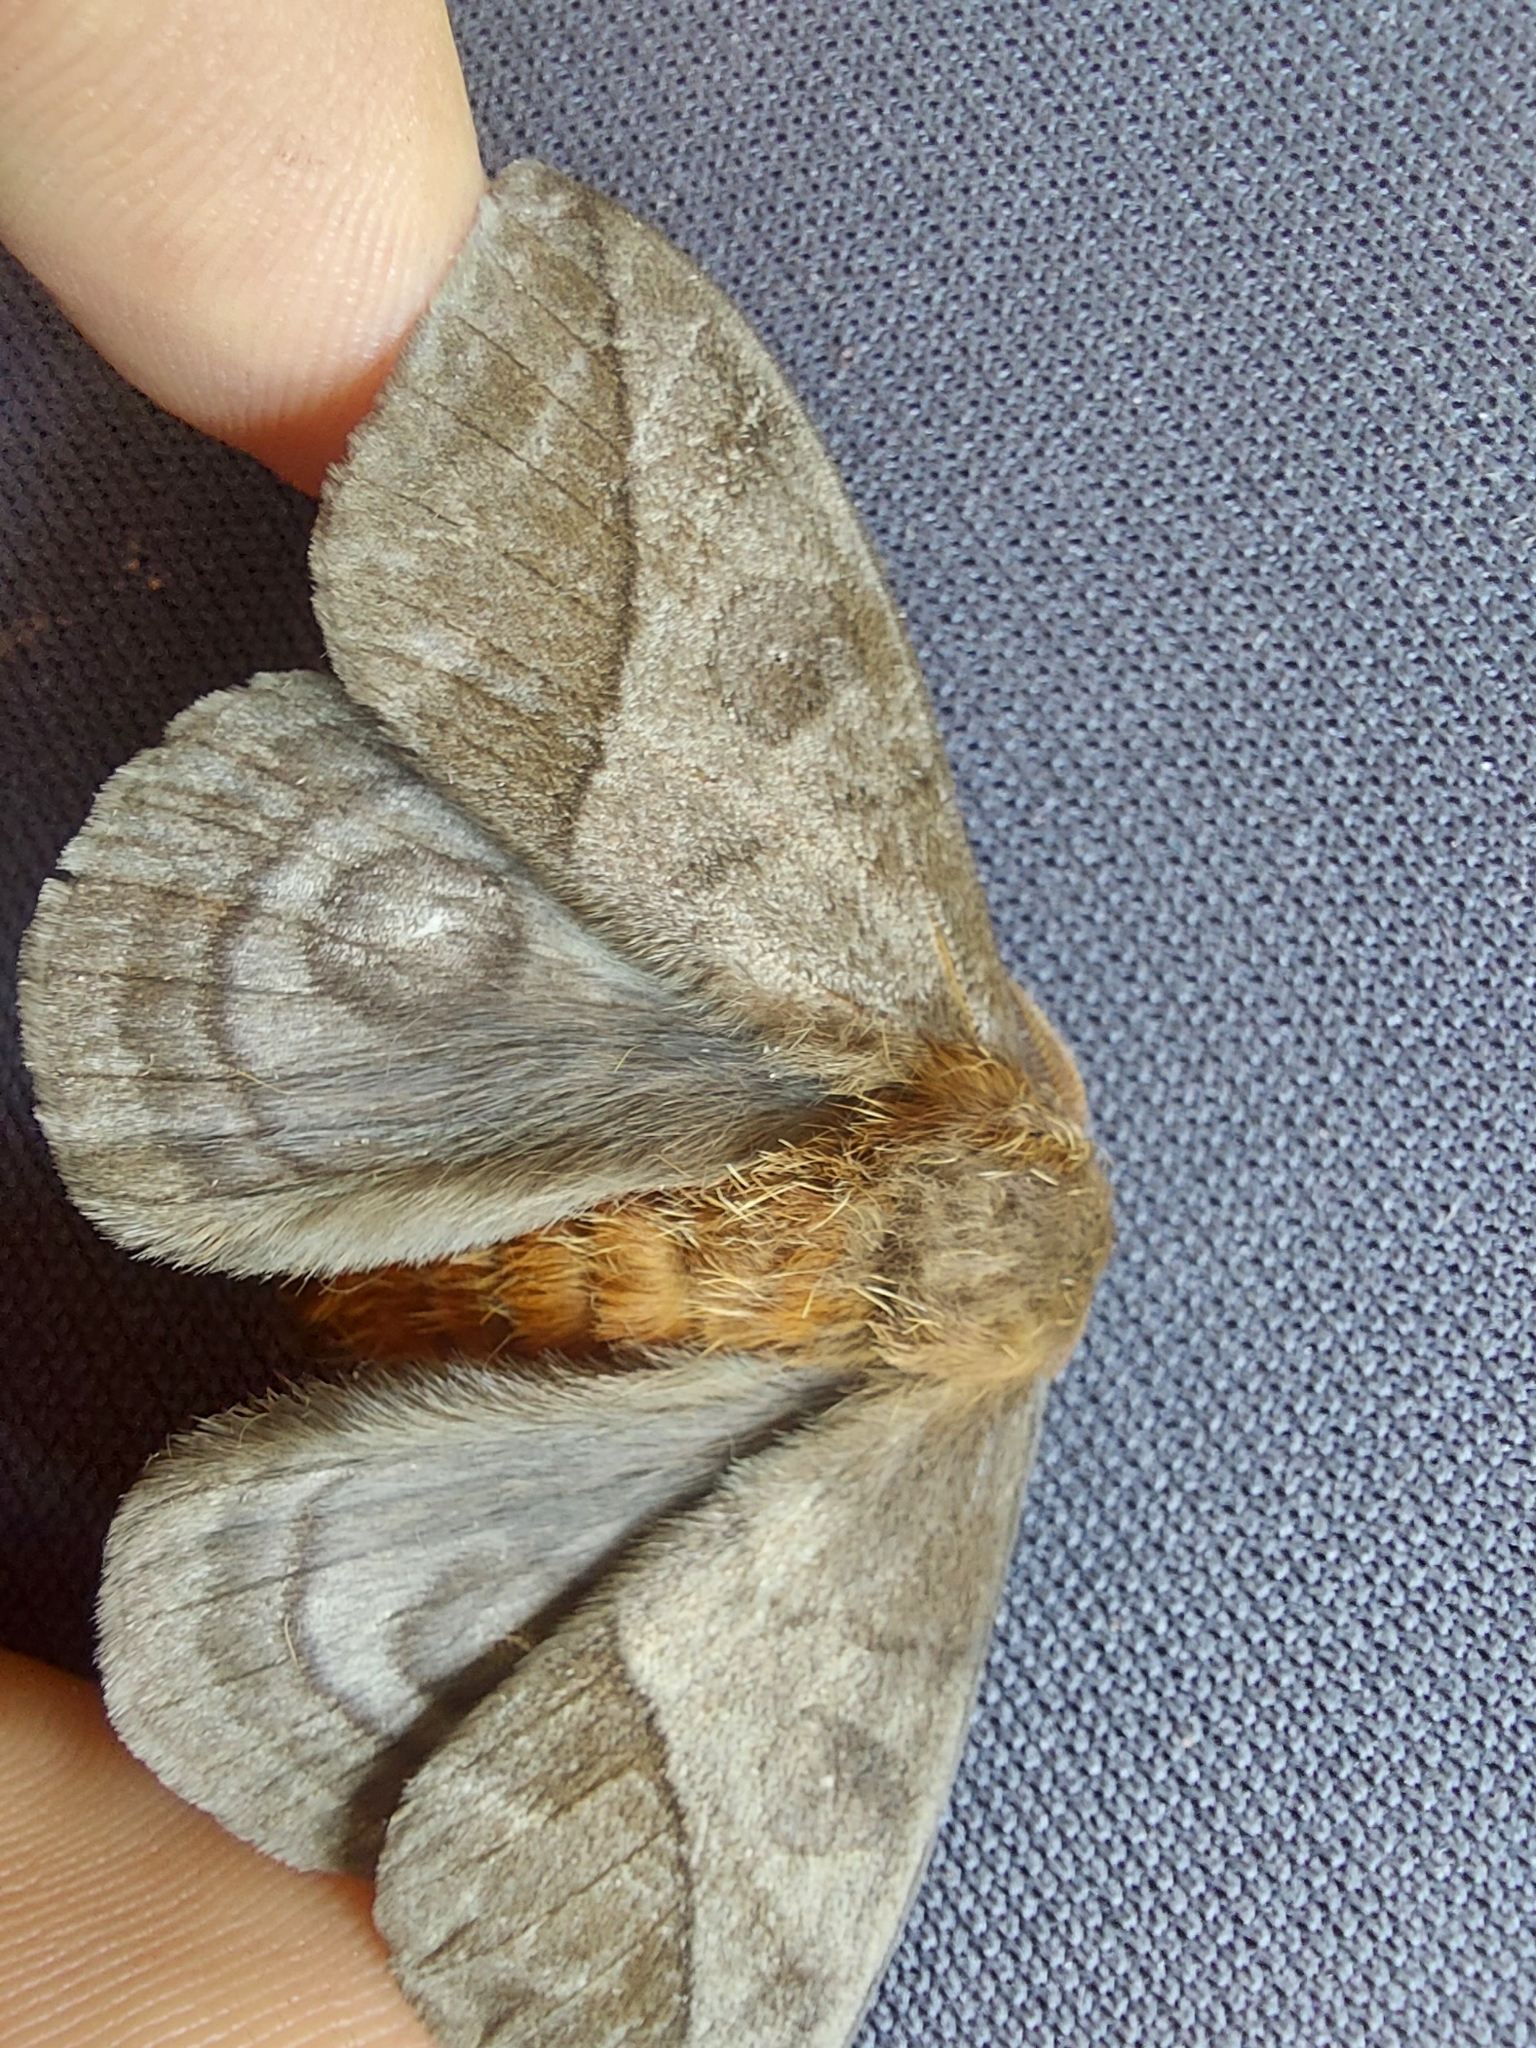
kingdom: Animalia
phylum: Arthropoda
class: Insecta
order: Lepidoptera
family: Saturniidae
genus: Automeris
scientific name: Automeris inornata
